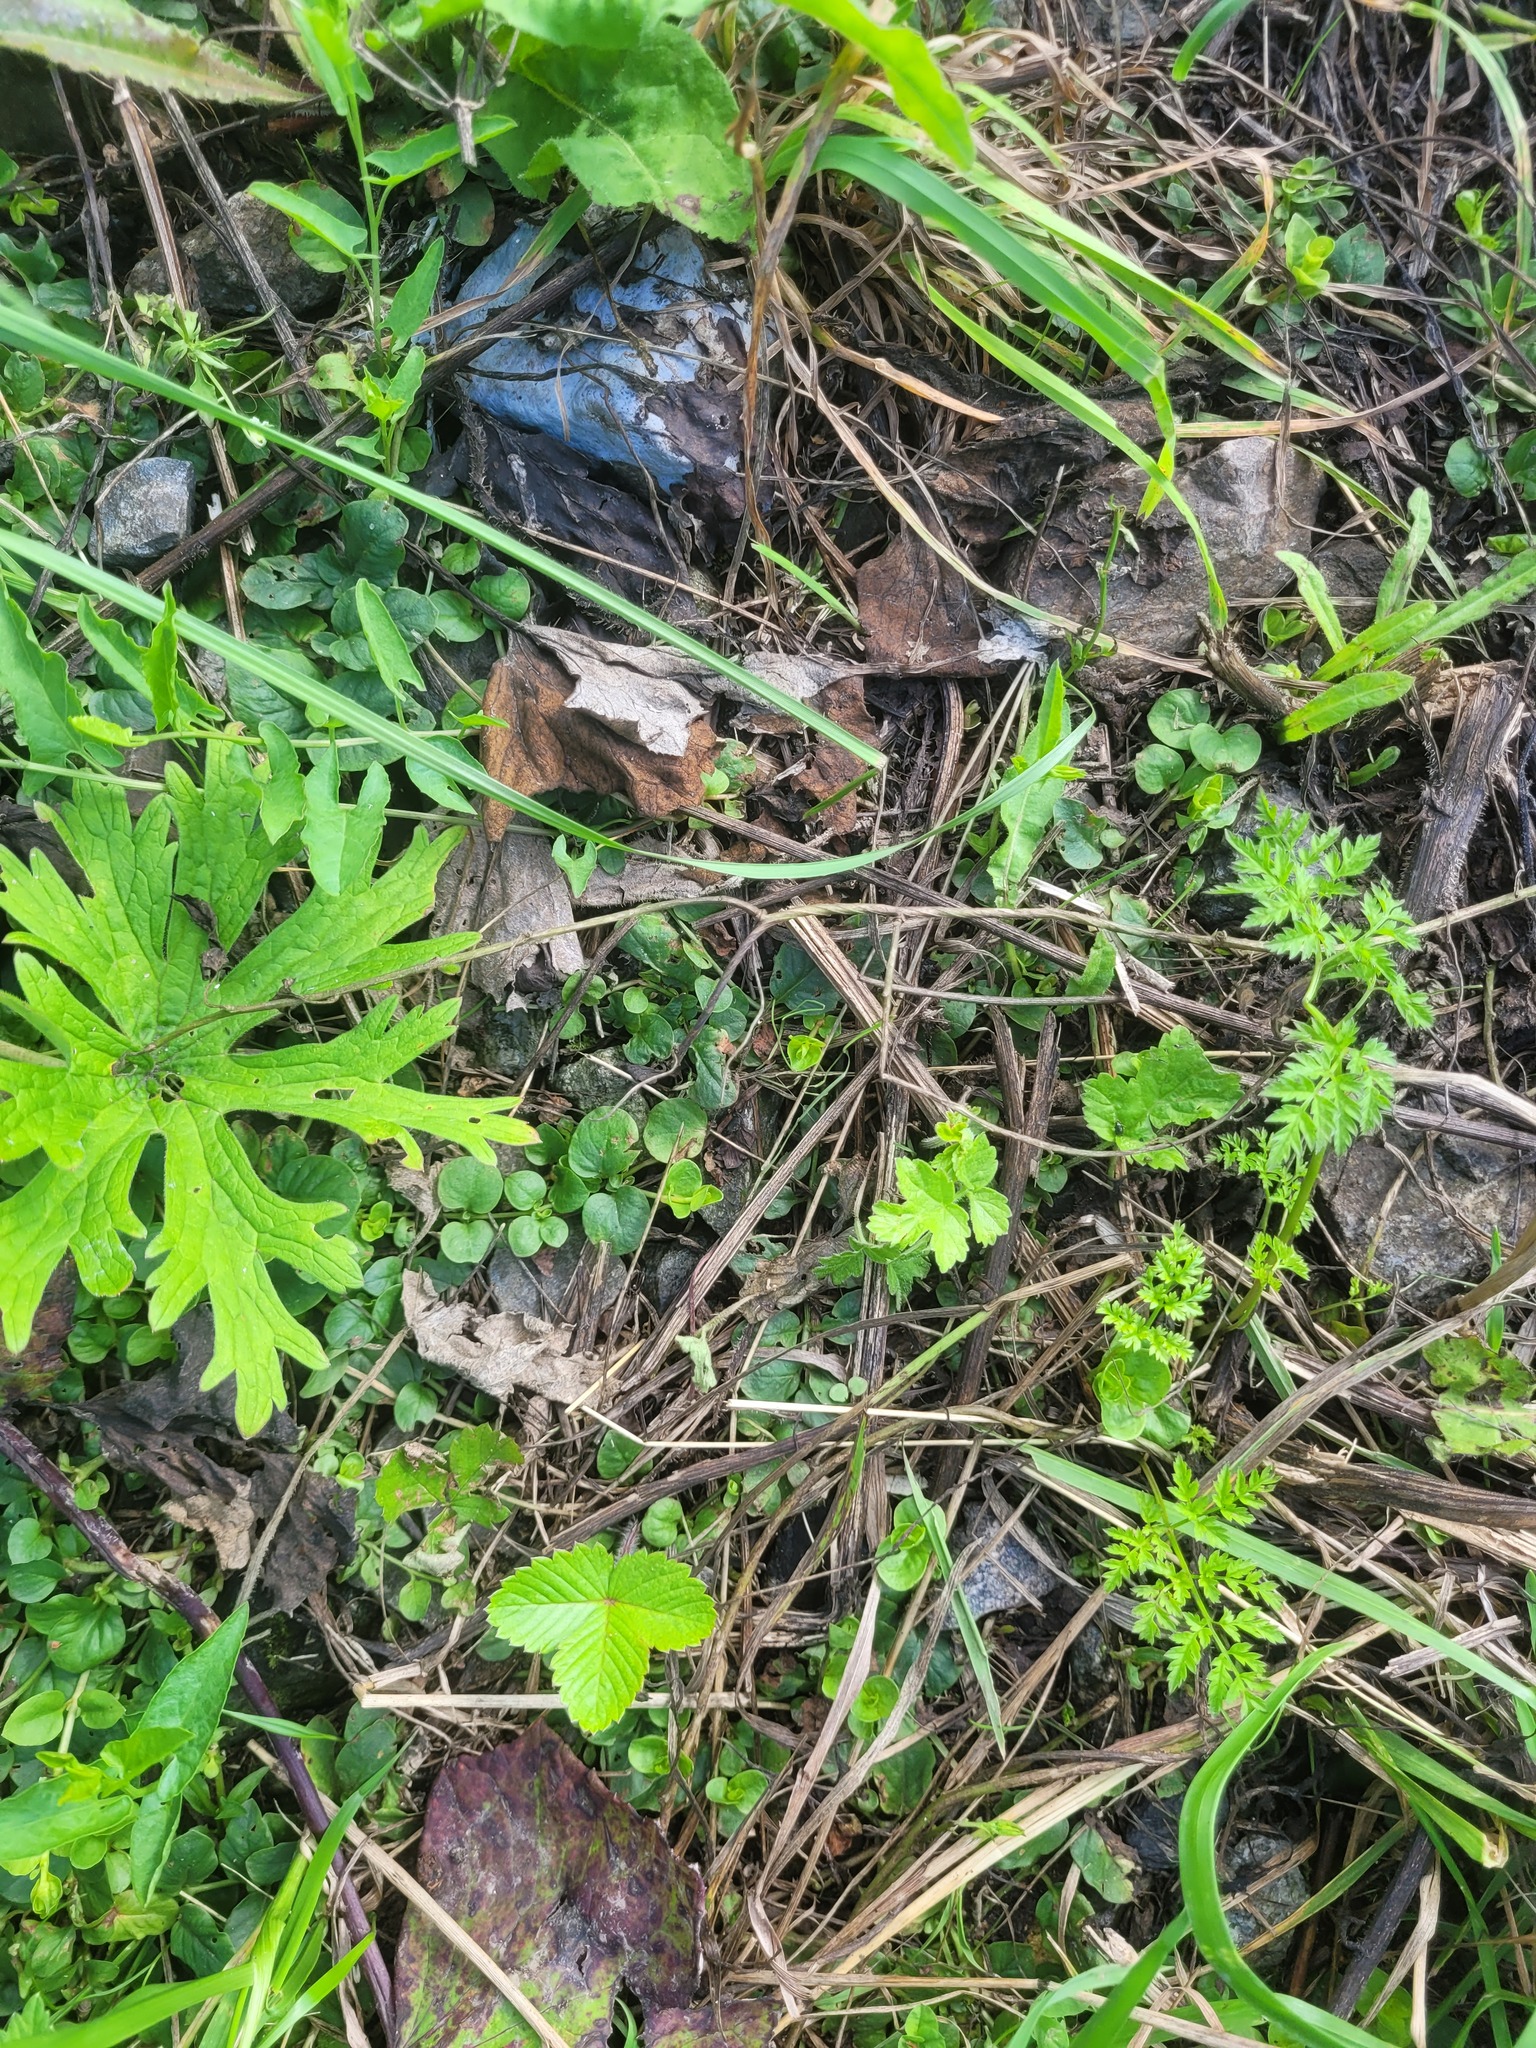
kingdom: Plantae
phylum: Tracheophyta
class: Magnoliopsida
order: Ericales
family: Primulaceae
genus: Lysimachia
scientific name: Lysimachia nummularia
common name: Moneywort
